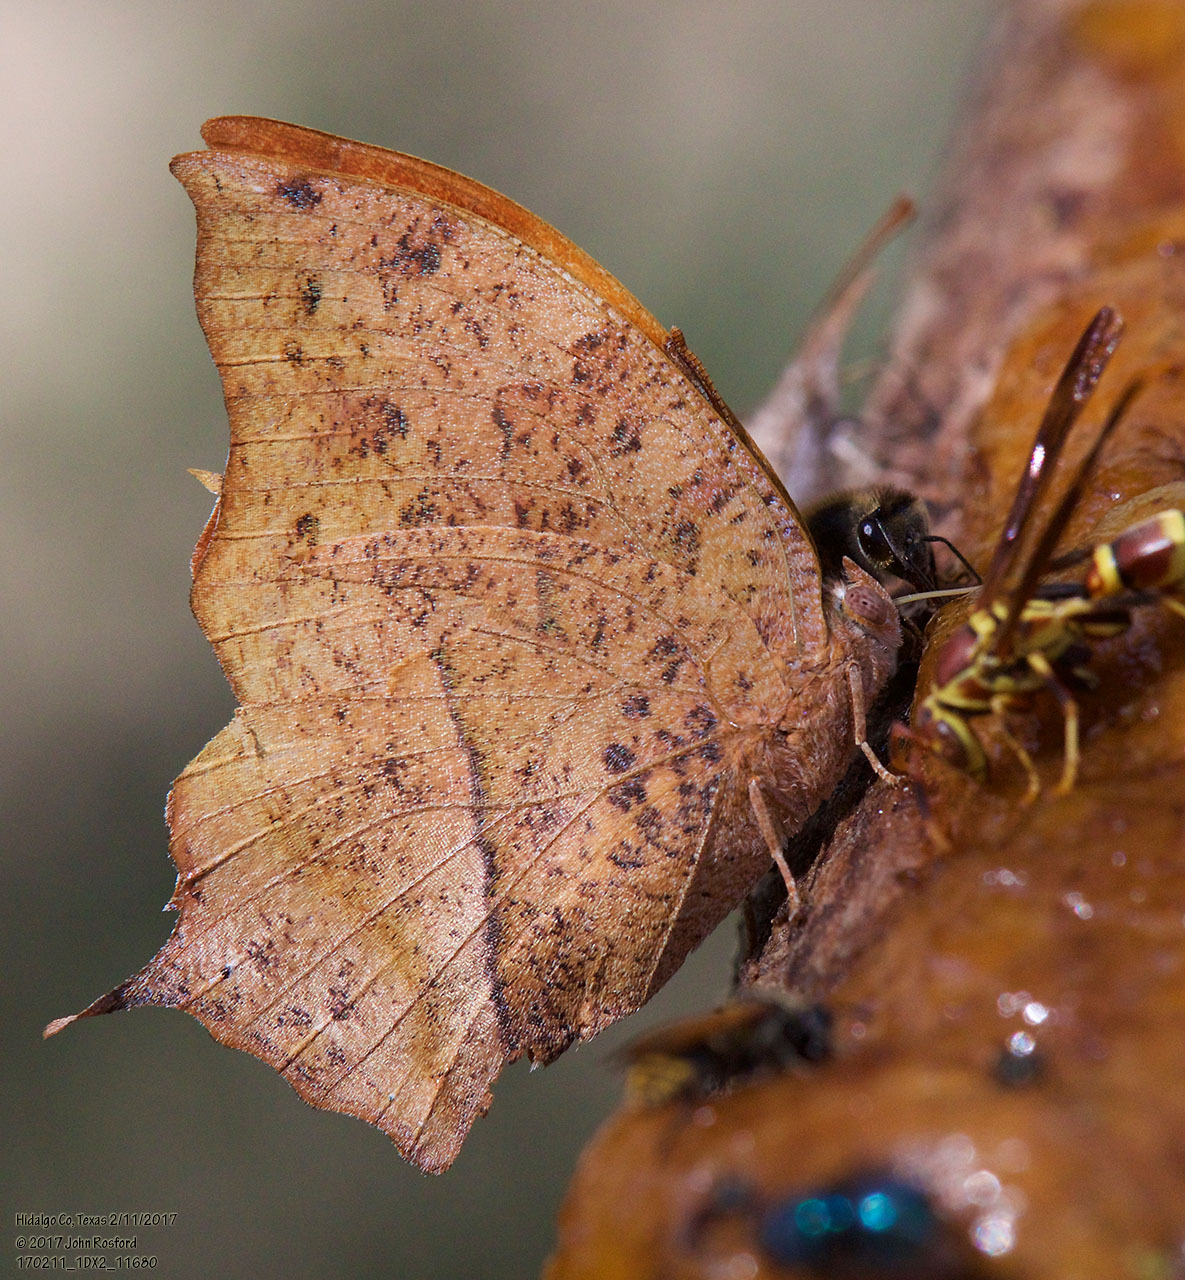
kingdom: Animalia
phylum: Arthropoda
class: Insecta
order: Lepidoptera
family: Nymphalidae
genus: Fountainea
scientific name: Fountainea
